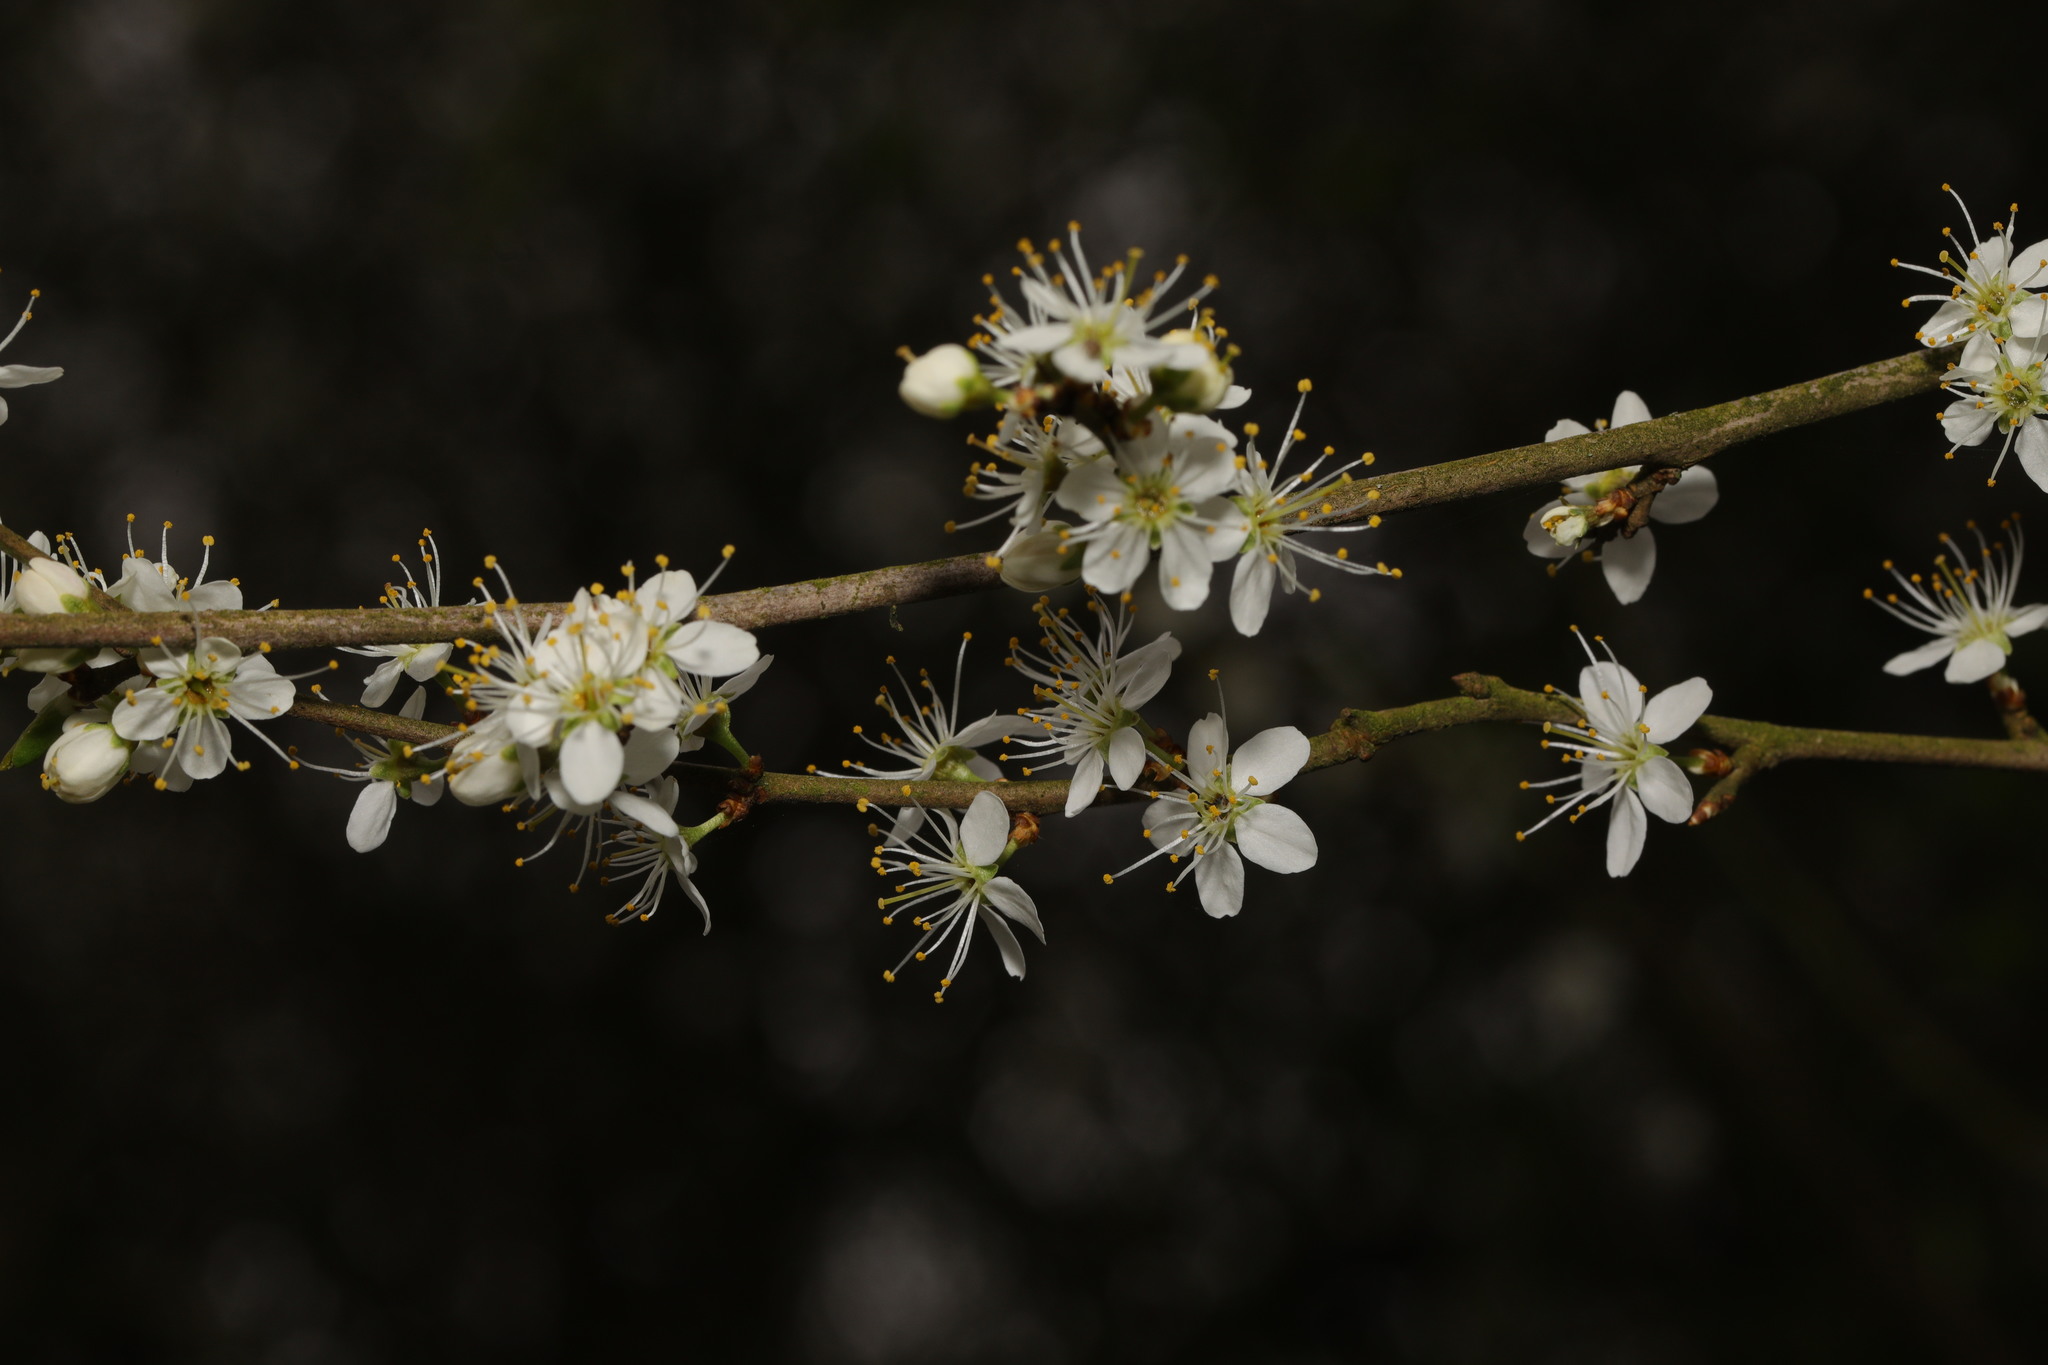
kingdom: Plantae
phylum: Tracheophyta
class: Magnoliopsida
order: Rosales
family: Rosaceae
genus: Prunus
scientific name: Prunus spinosa
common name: Blackthorn
